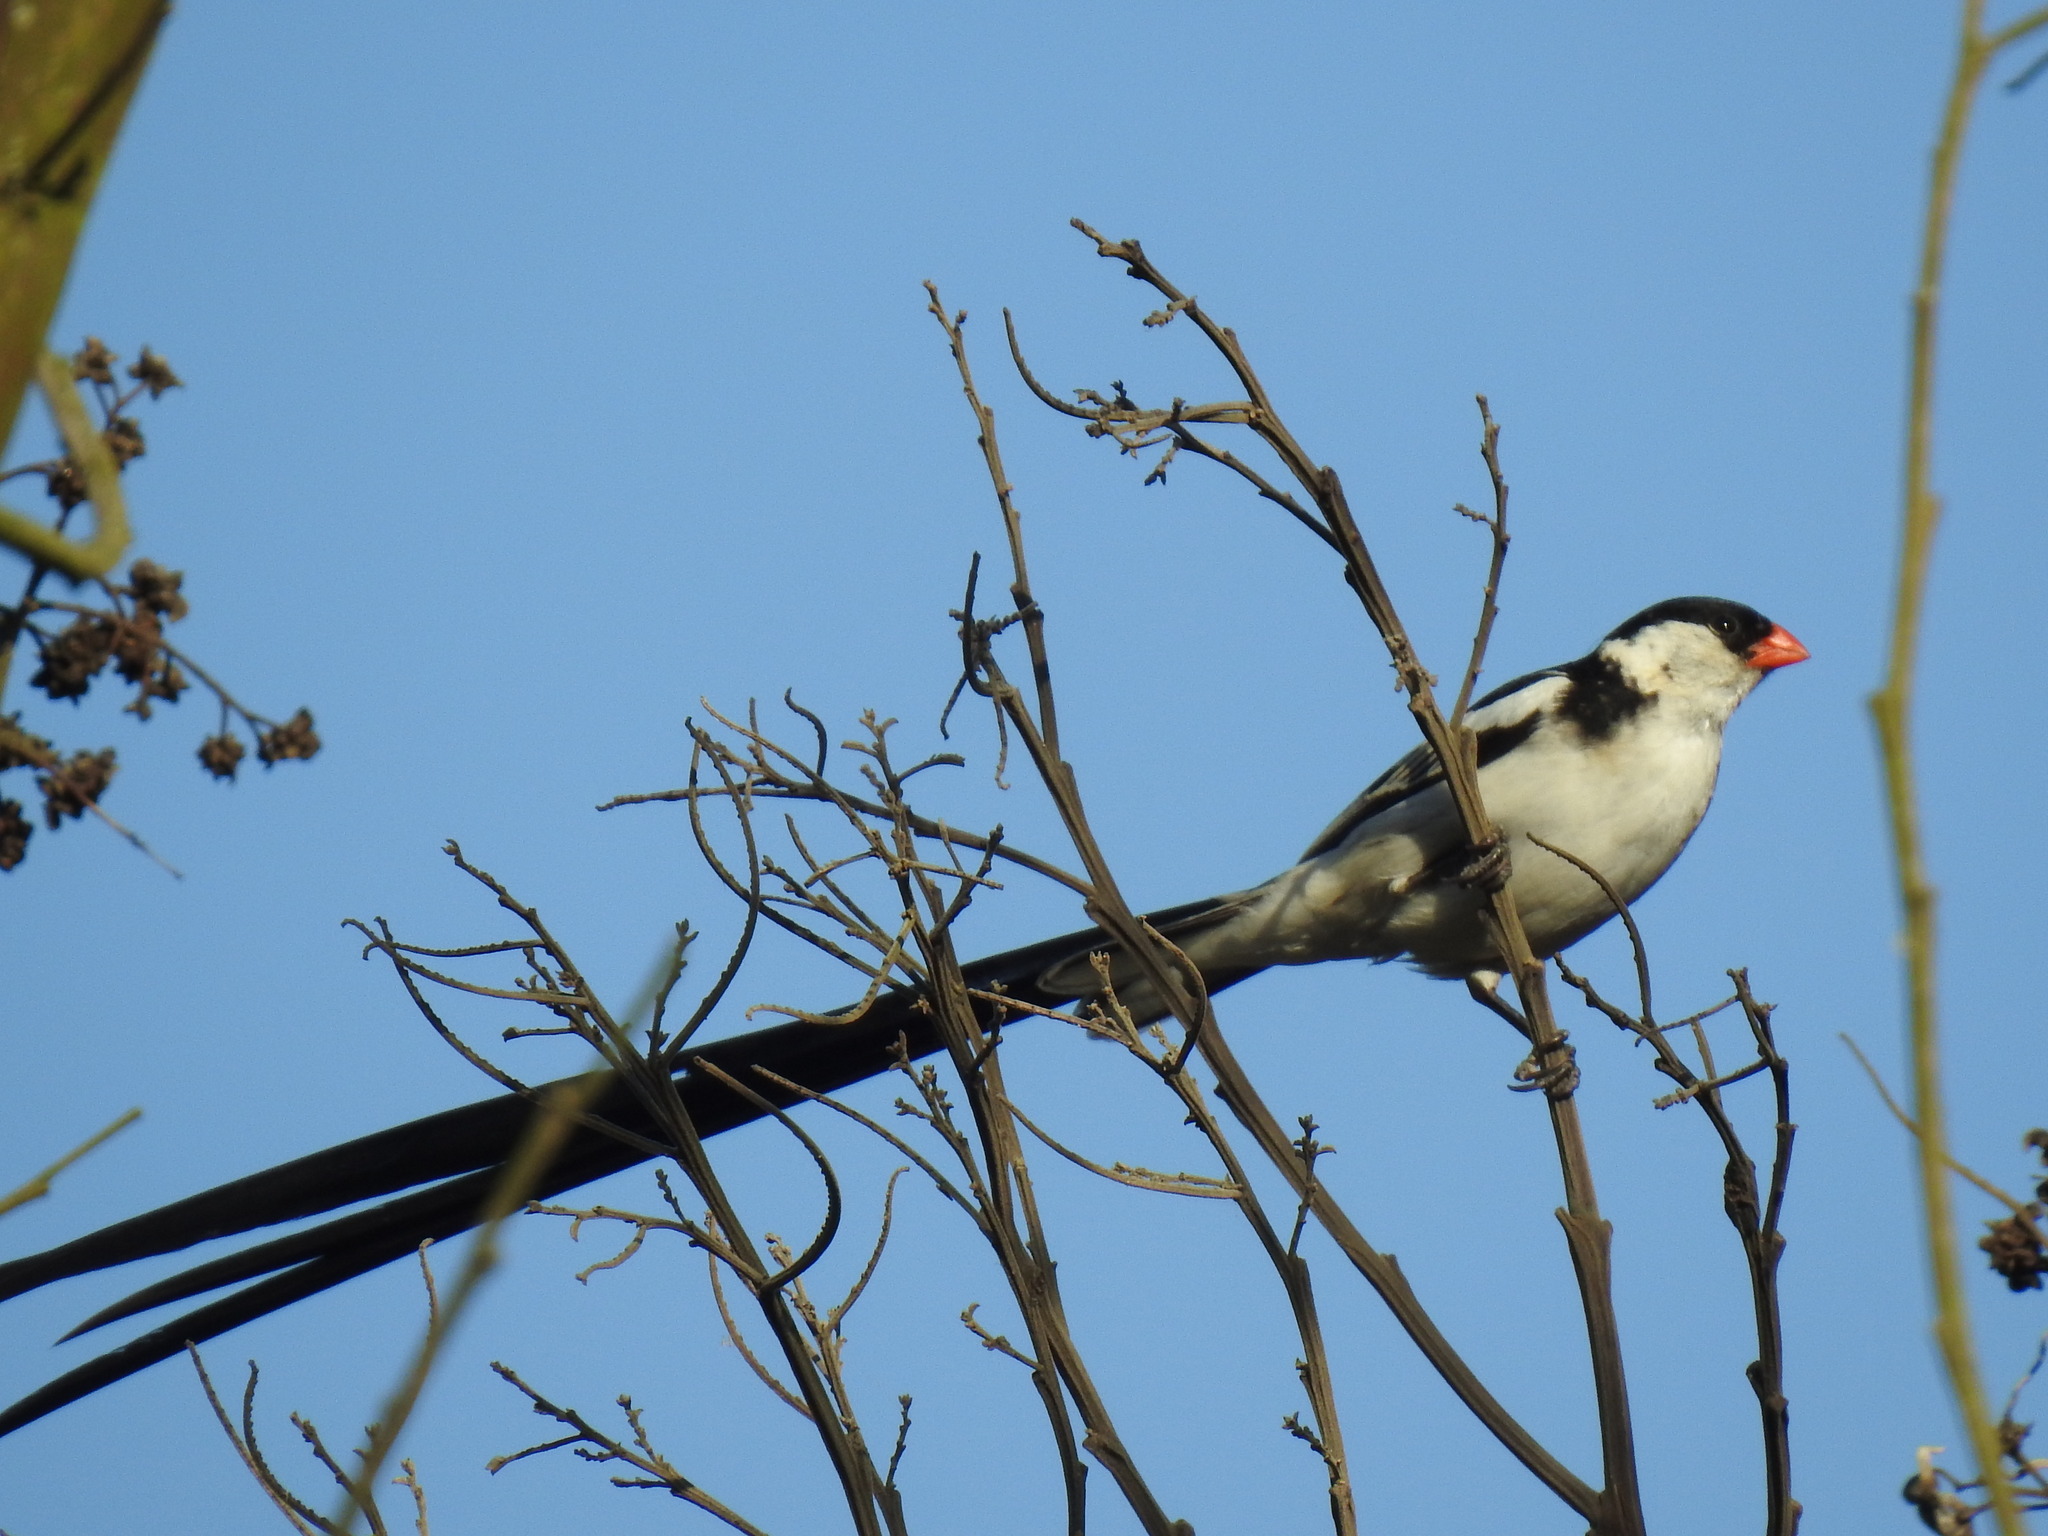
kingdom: Animalia
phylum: Chordata
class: Aves
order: Passeriformes
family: Viduidae
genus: Vidua
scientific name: Vidua macroura
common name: Pin-tailed whydah
